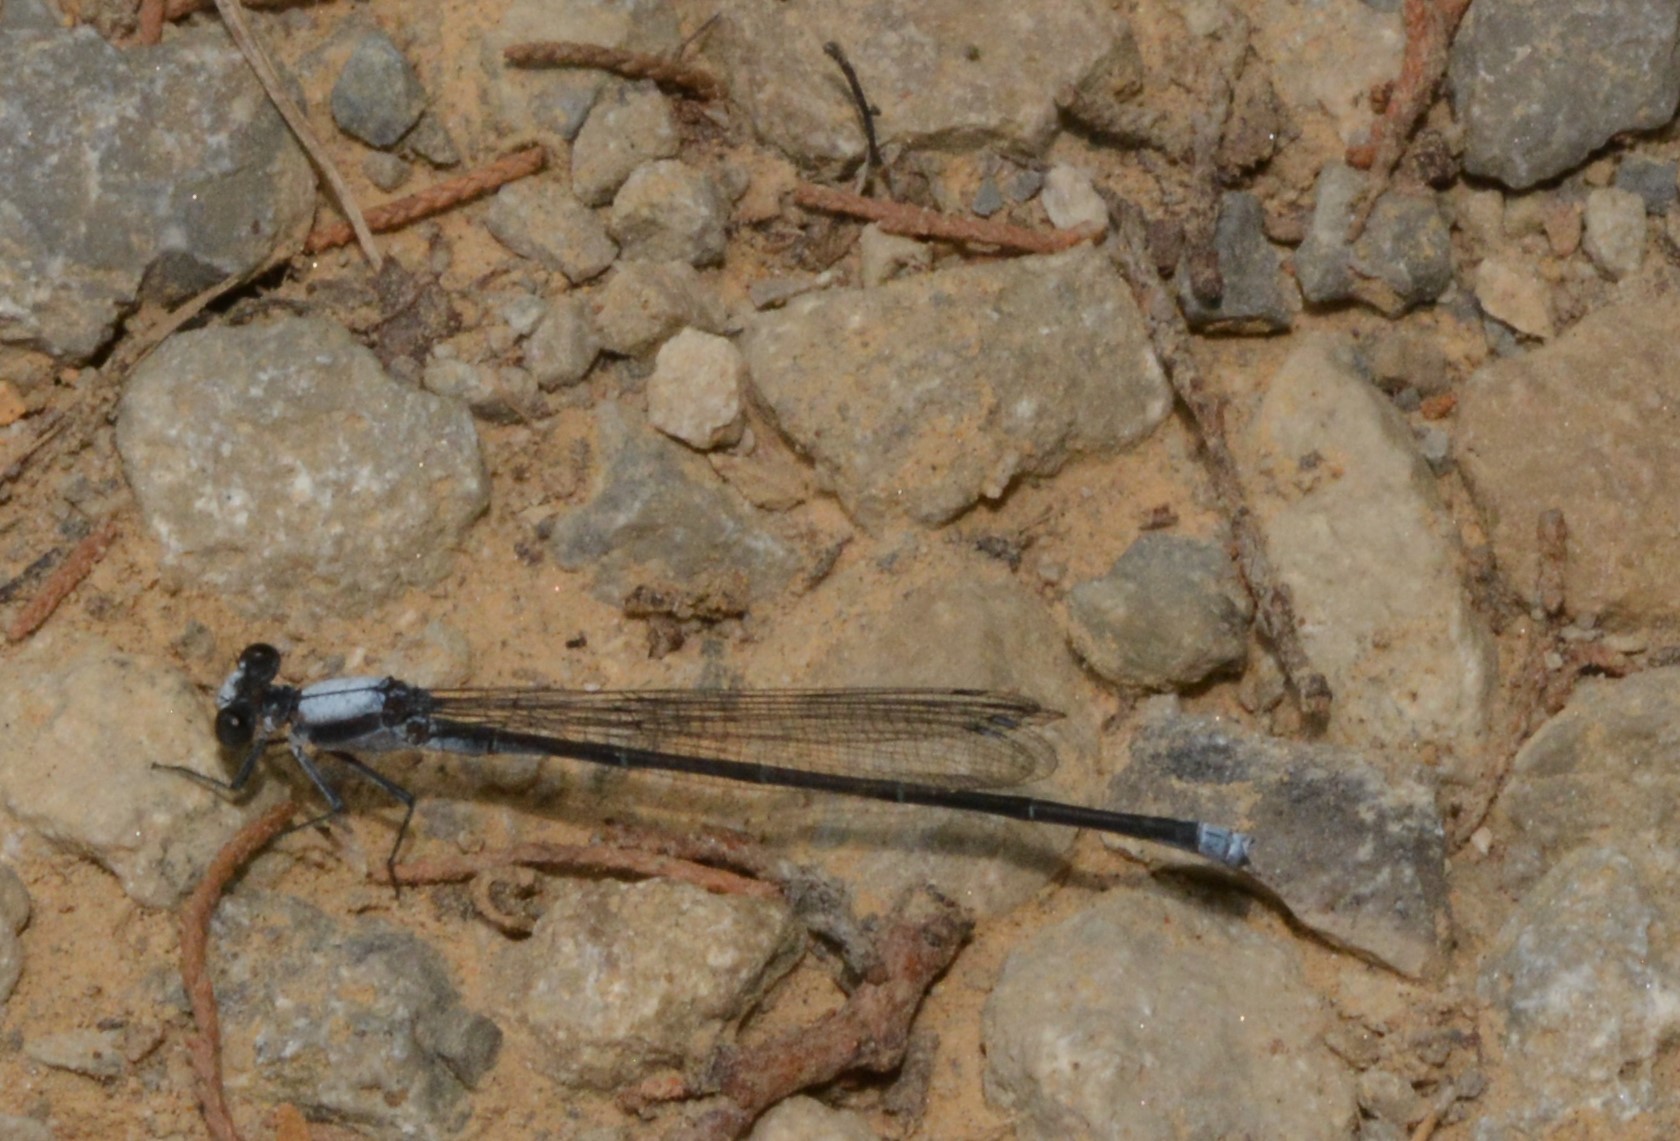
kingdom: Animalia
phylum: Arthropoda
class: Insecta
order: Odonata
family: Coenagrionidae
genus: Argia
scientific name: Argia moesta
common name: Powdered dancer
